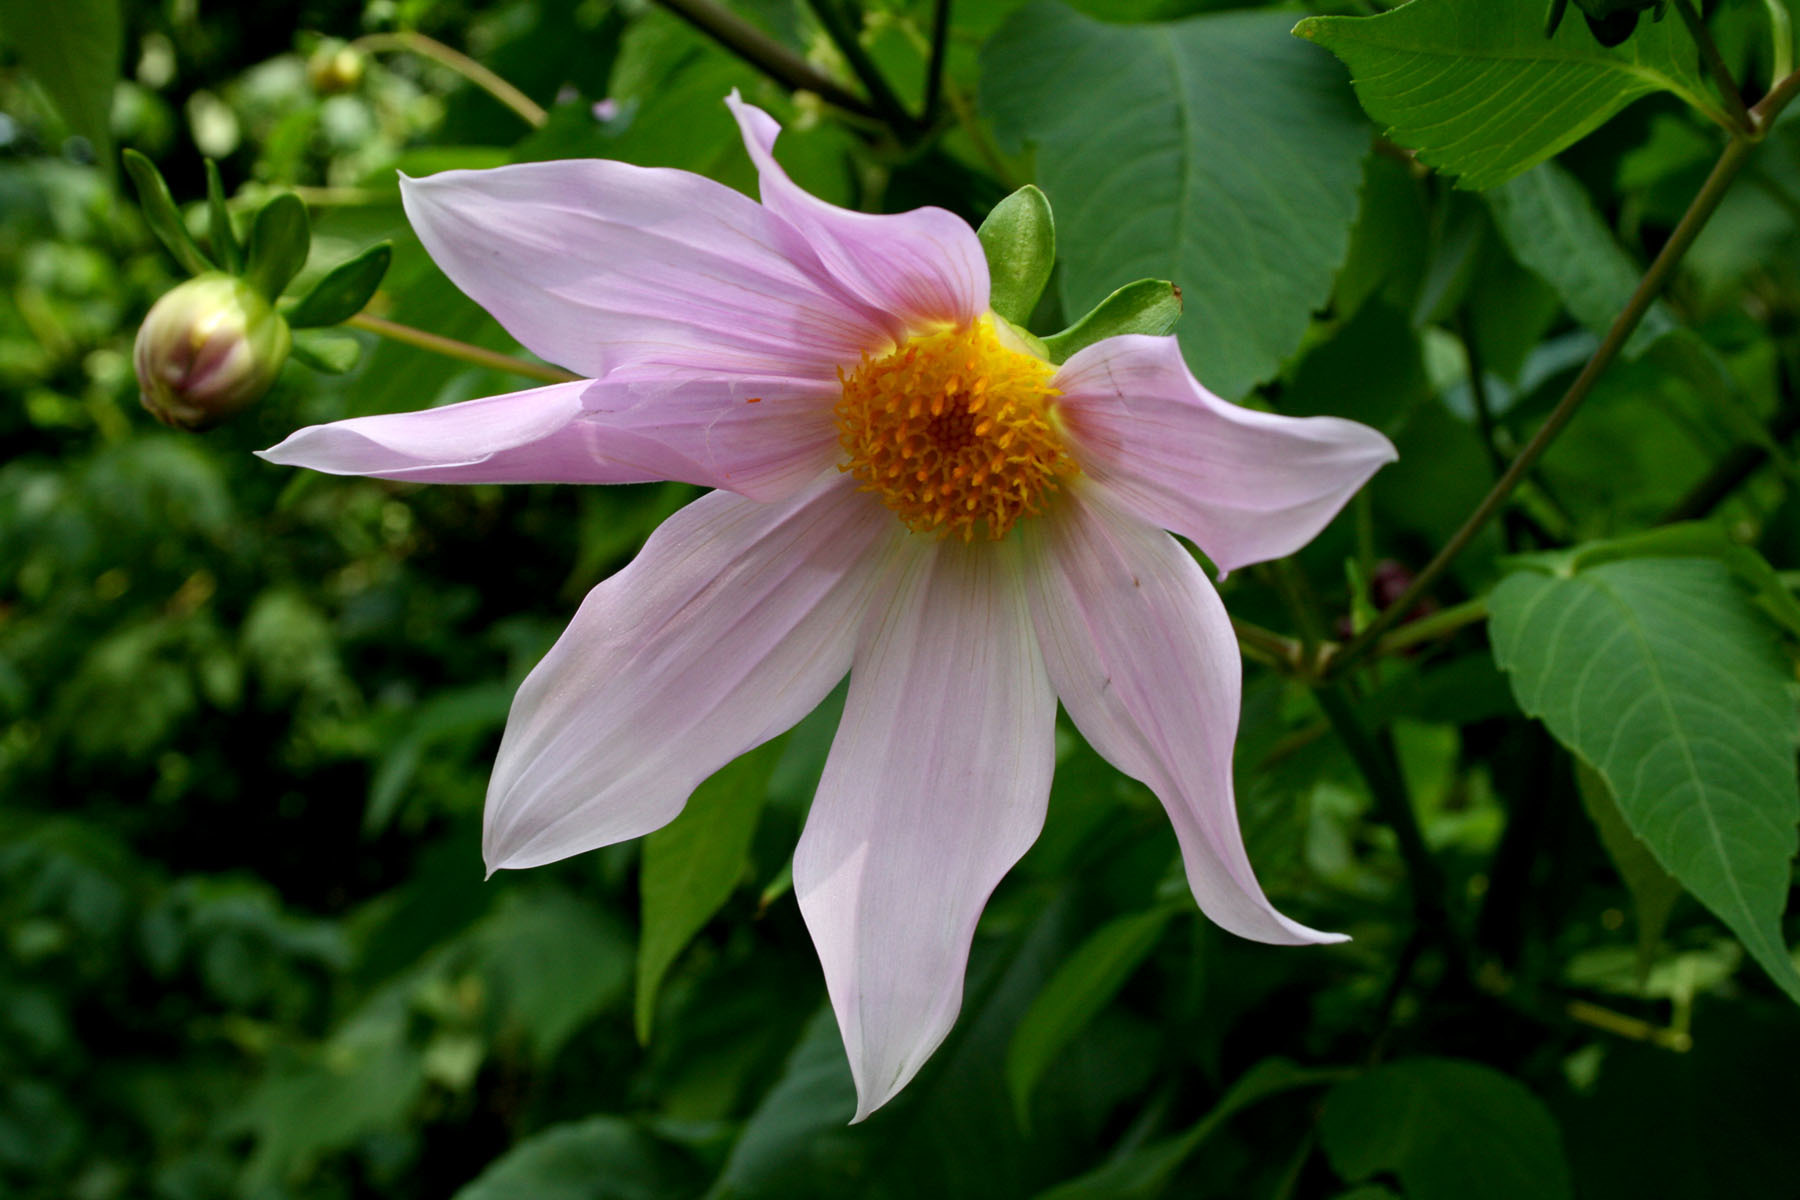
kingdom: Plantae
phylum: Tracheophyta
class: Magnoliopsida
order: Asterales
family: Asteraceae
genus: Dahlia
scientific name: Dahlia imperialis
